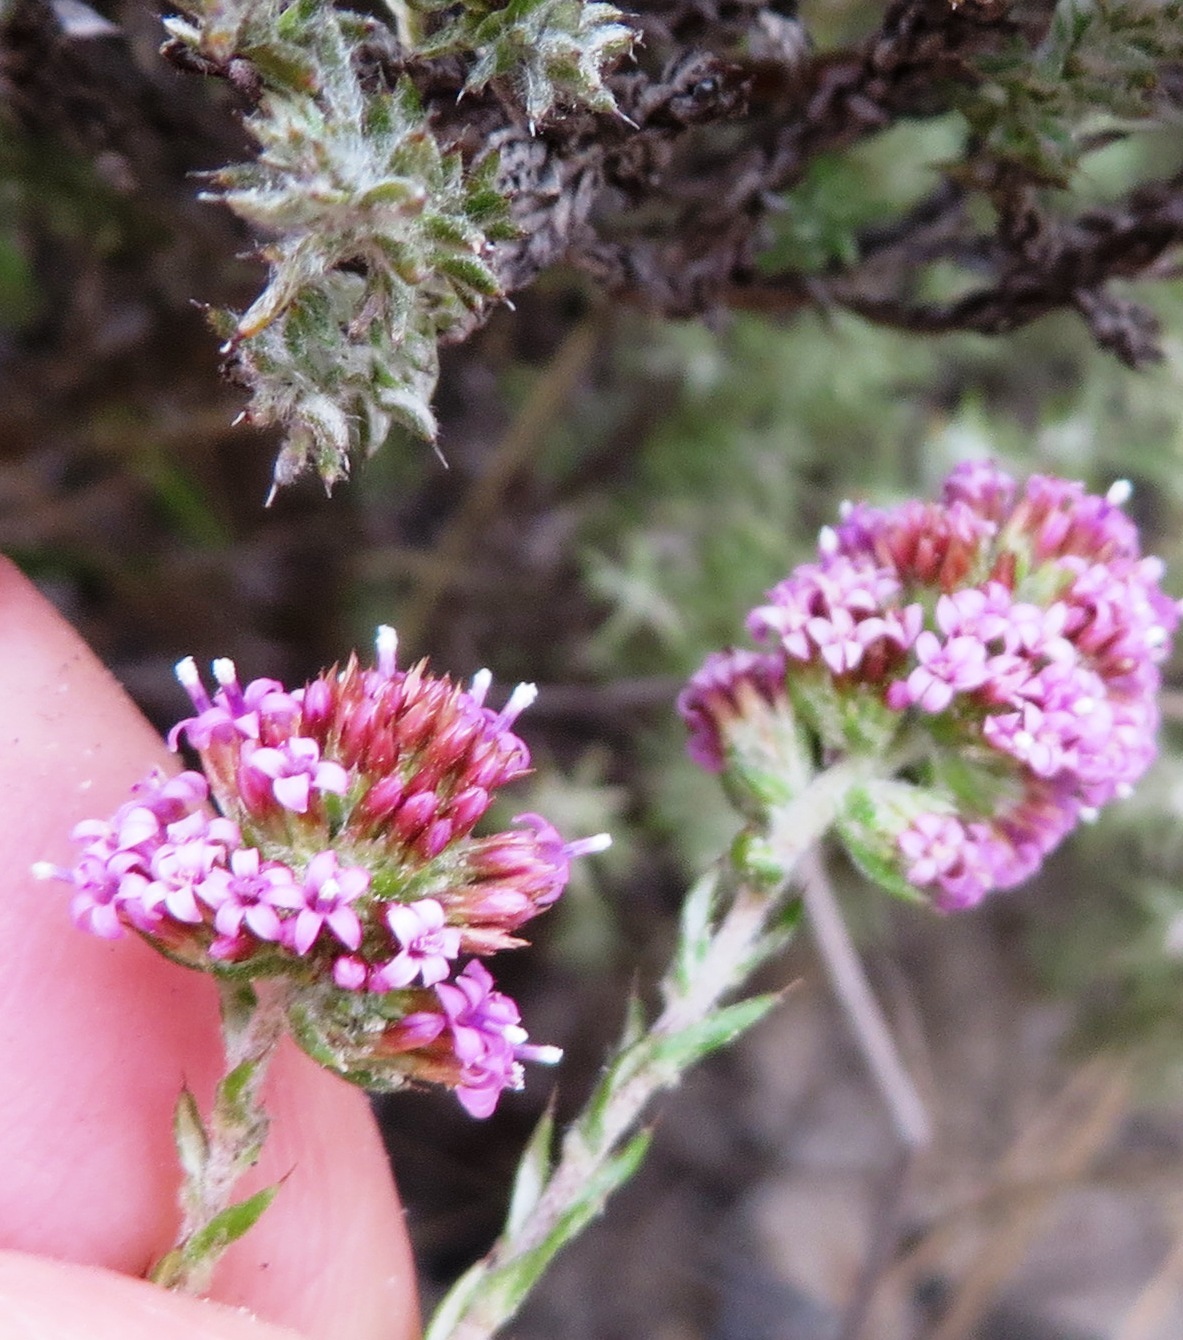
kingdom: Plantae
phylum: Tracheophyta
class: Magnoliopsida
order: Asterales
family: Asteraceae
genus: Stoebe
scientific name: Stoebe fusca
